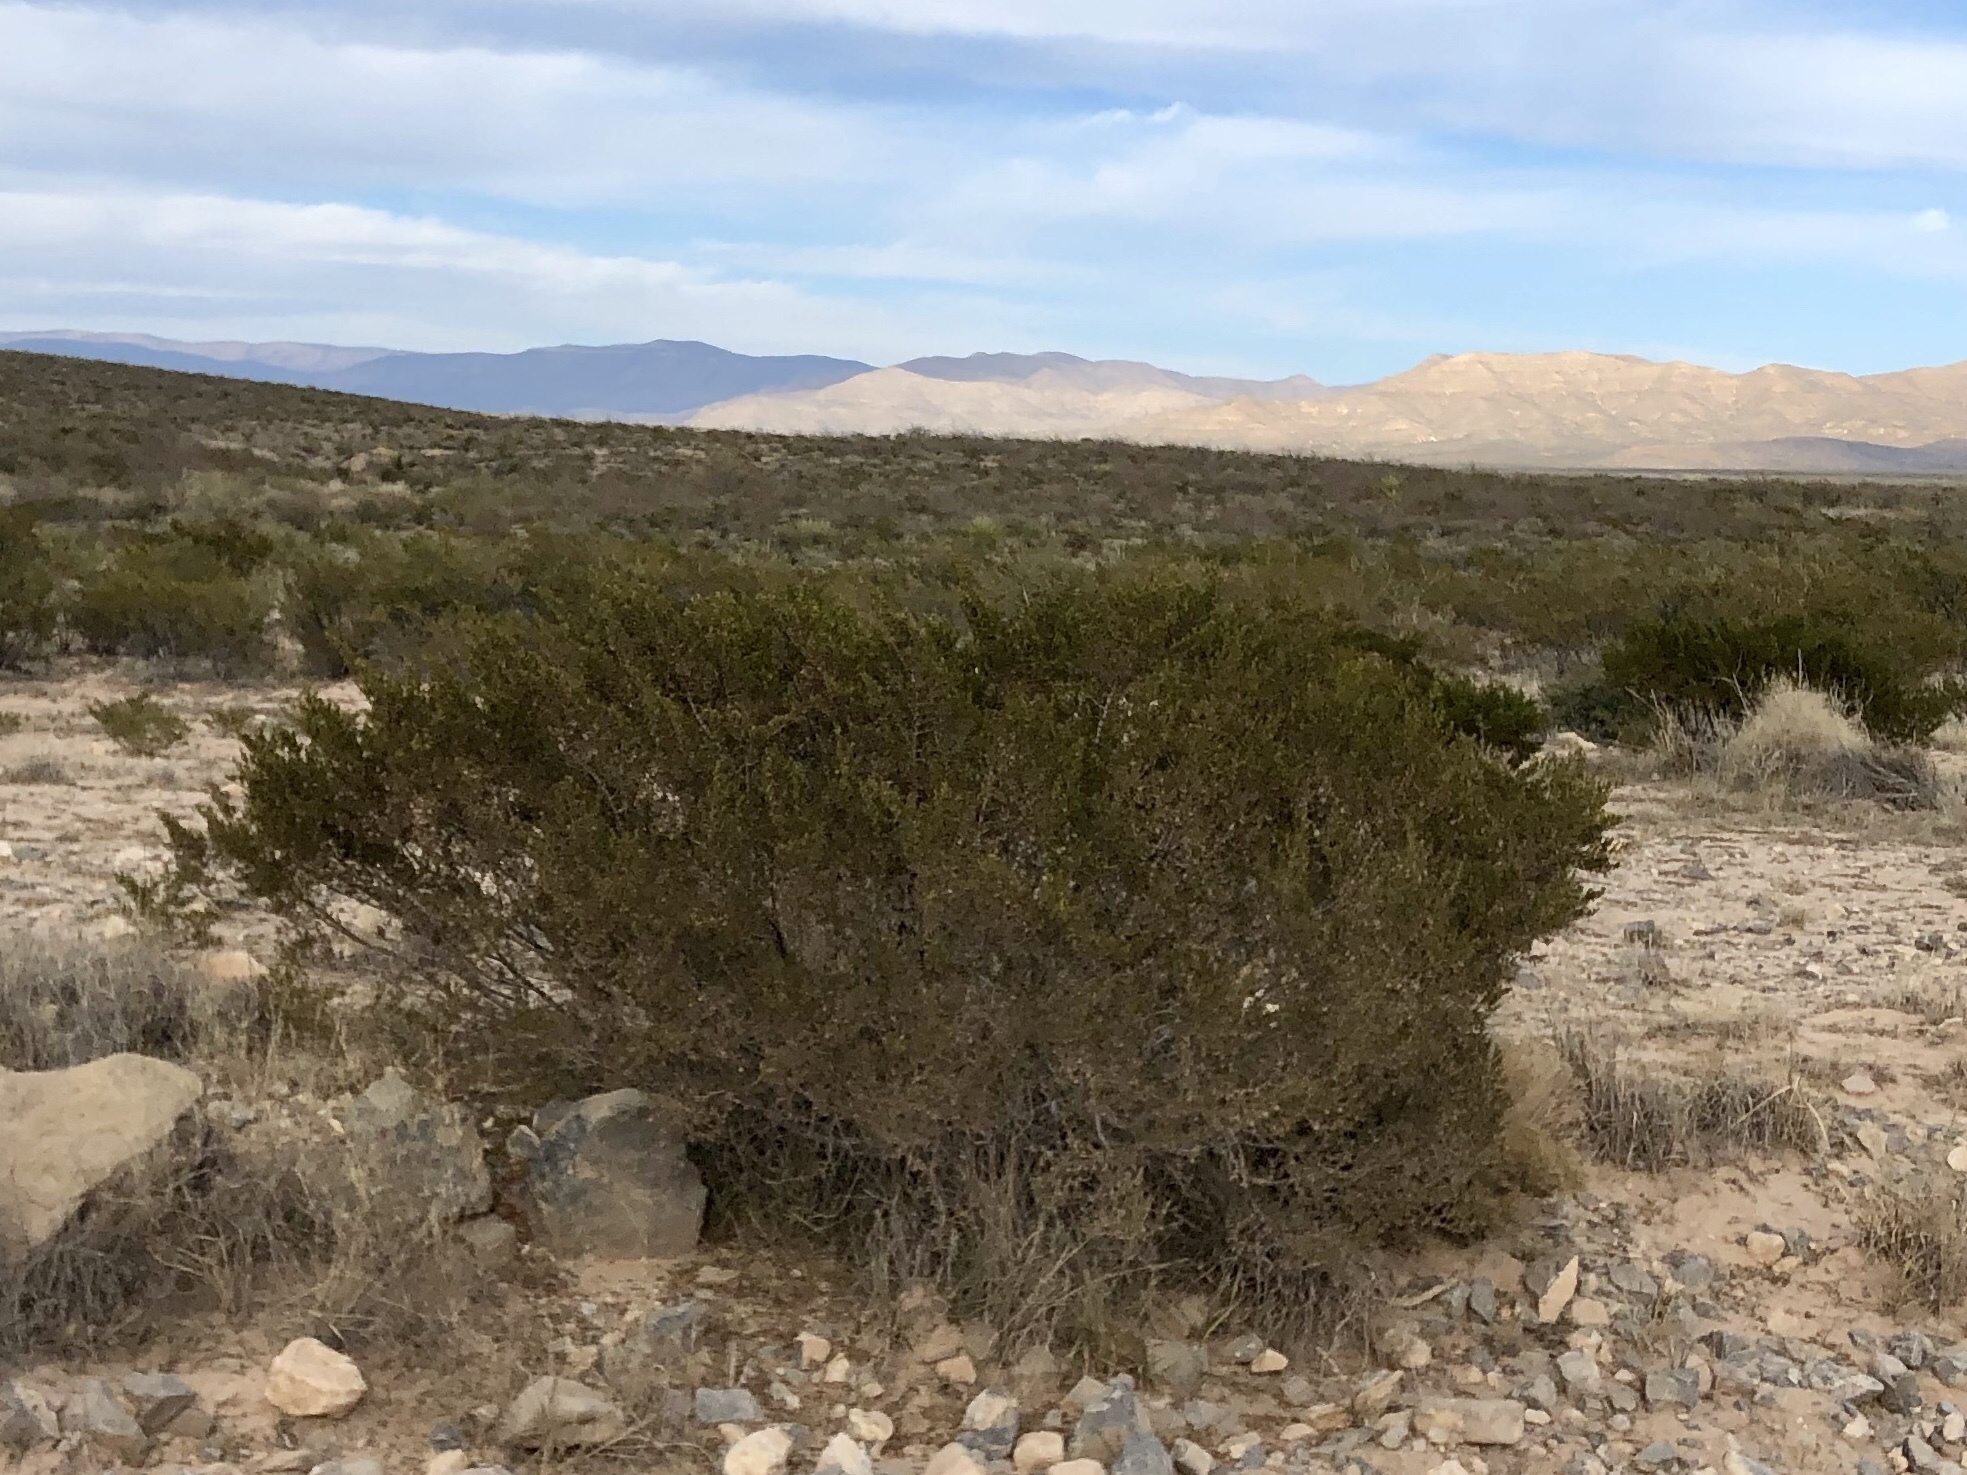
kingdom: Plantae
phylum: Tracheophyta
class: Magnoliopsida
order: Zygophyllales
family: Zygophyllaceae
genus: Larrea
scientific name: Larrea tridentata
